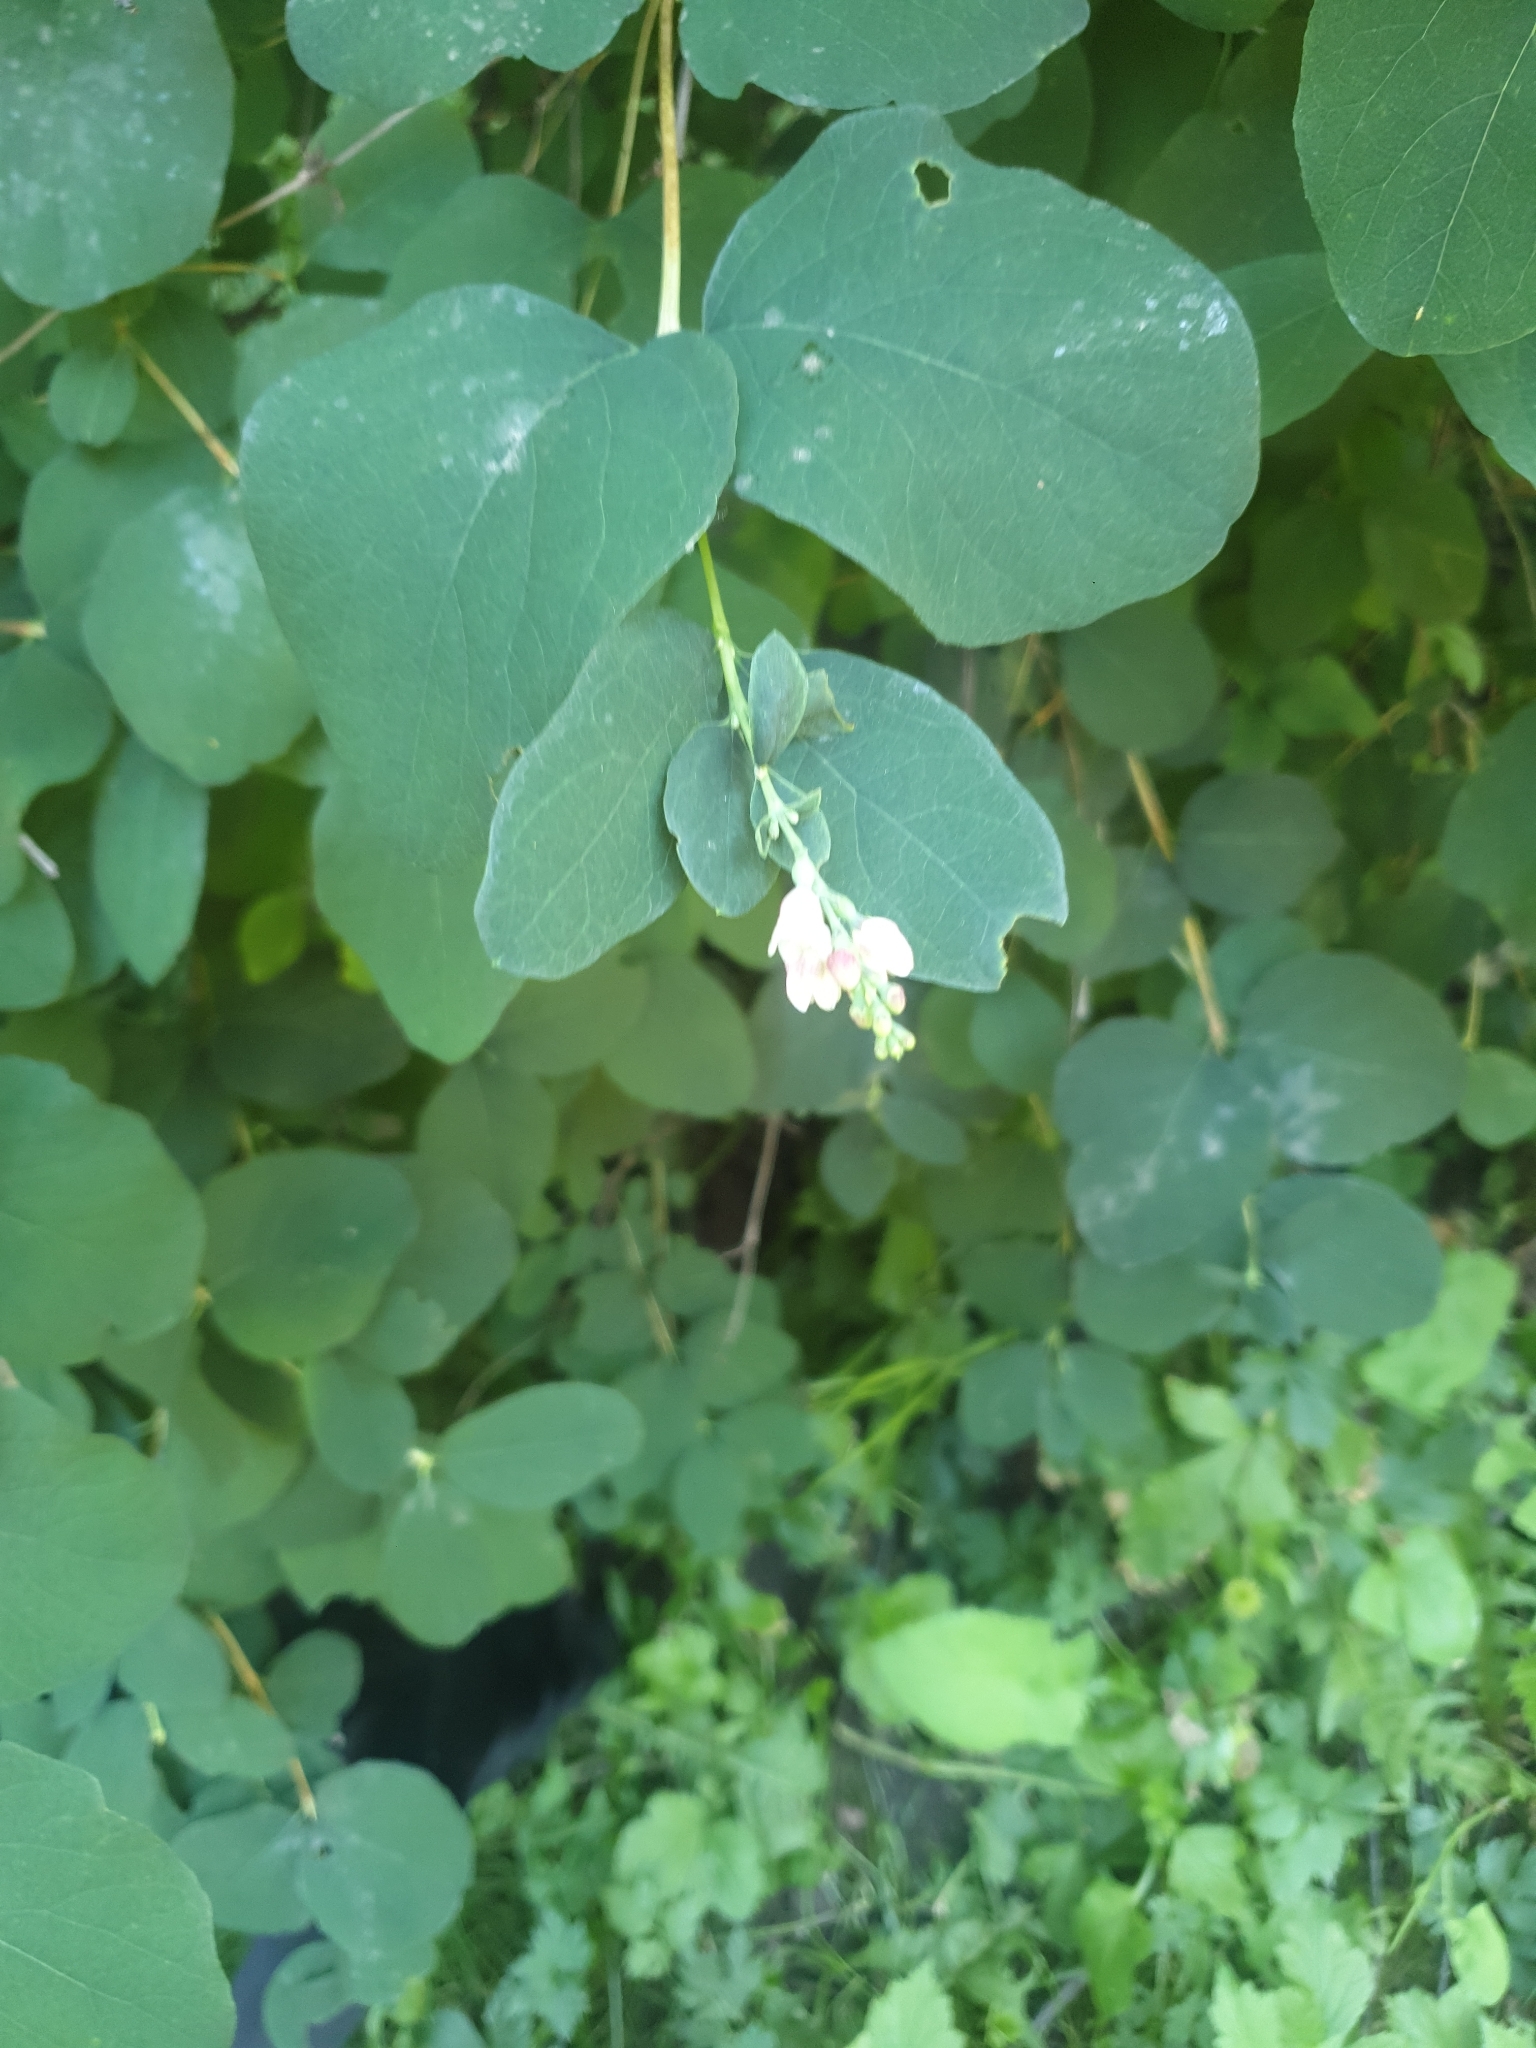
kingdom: Plantae
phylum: Tracheophyta
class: Magnoliopsida
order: Dipsacales
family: Caprifoliaceae
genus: Symphoricarpos
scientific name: Symphoricarpos albus
